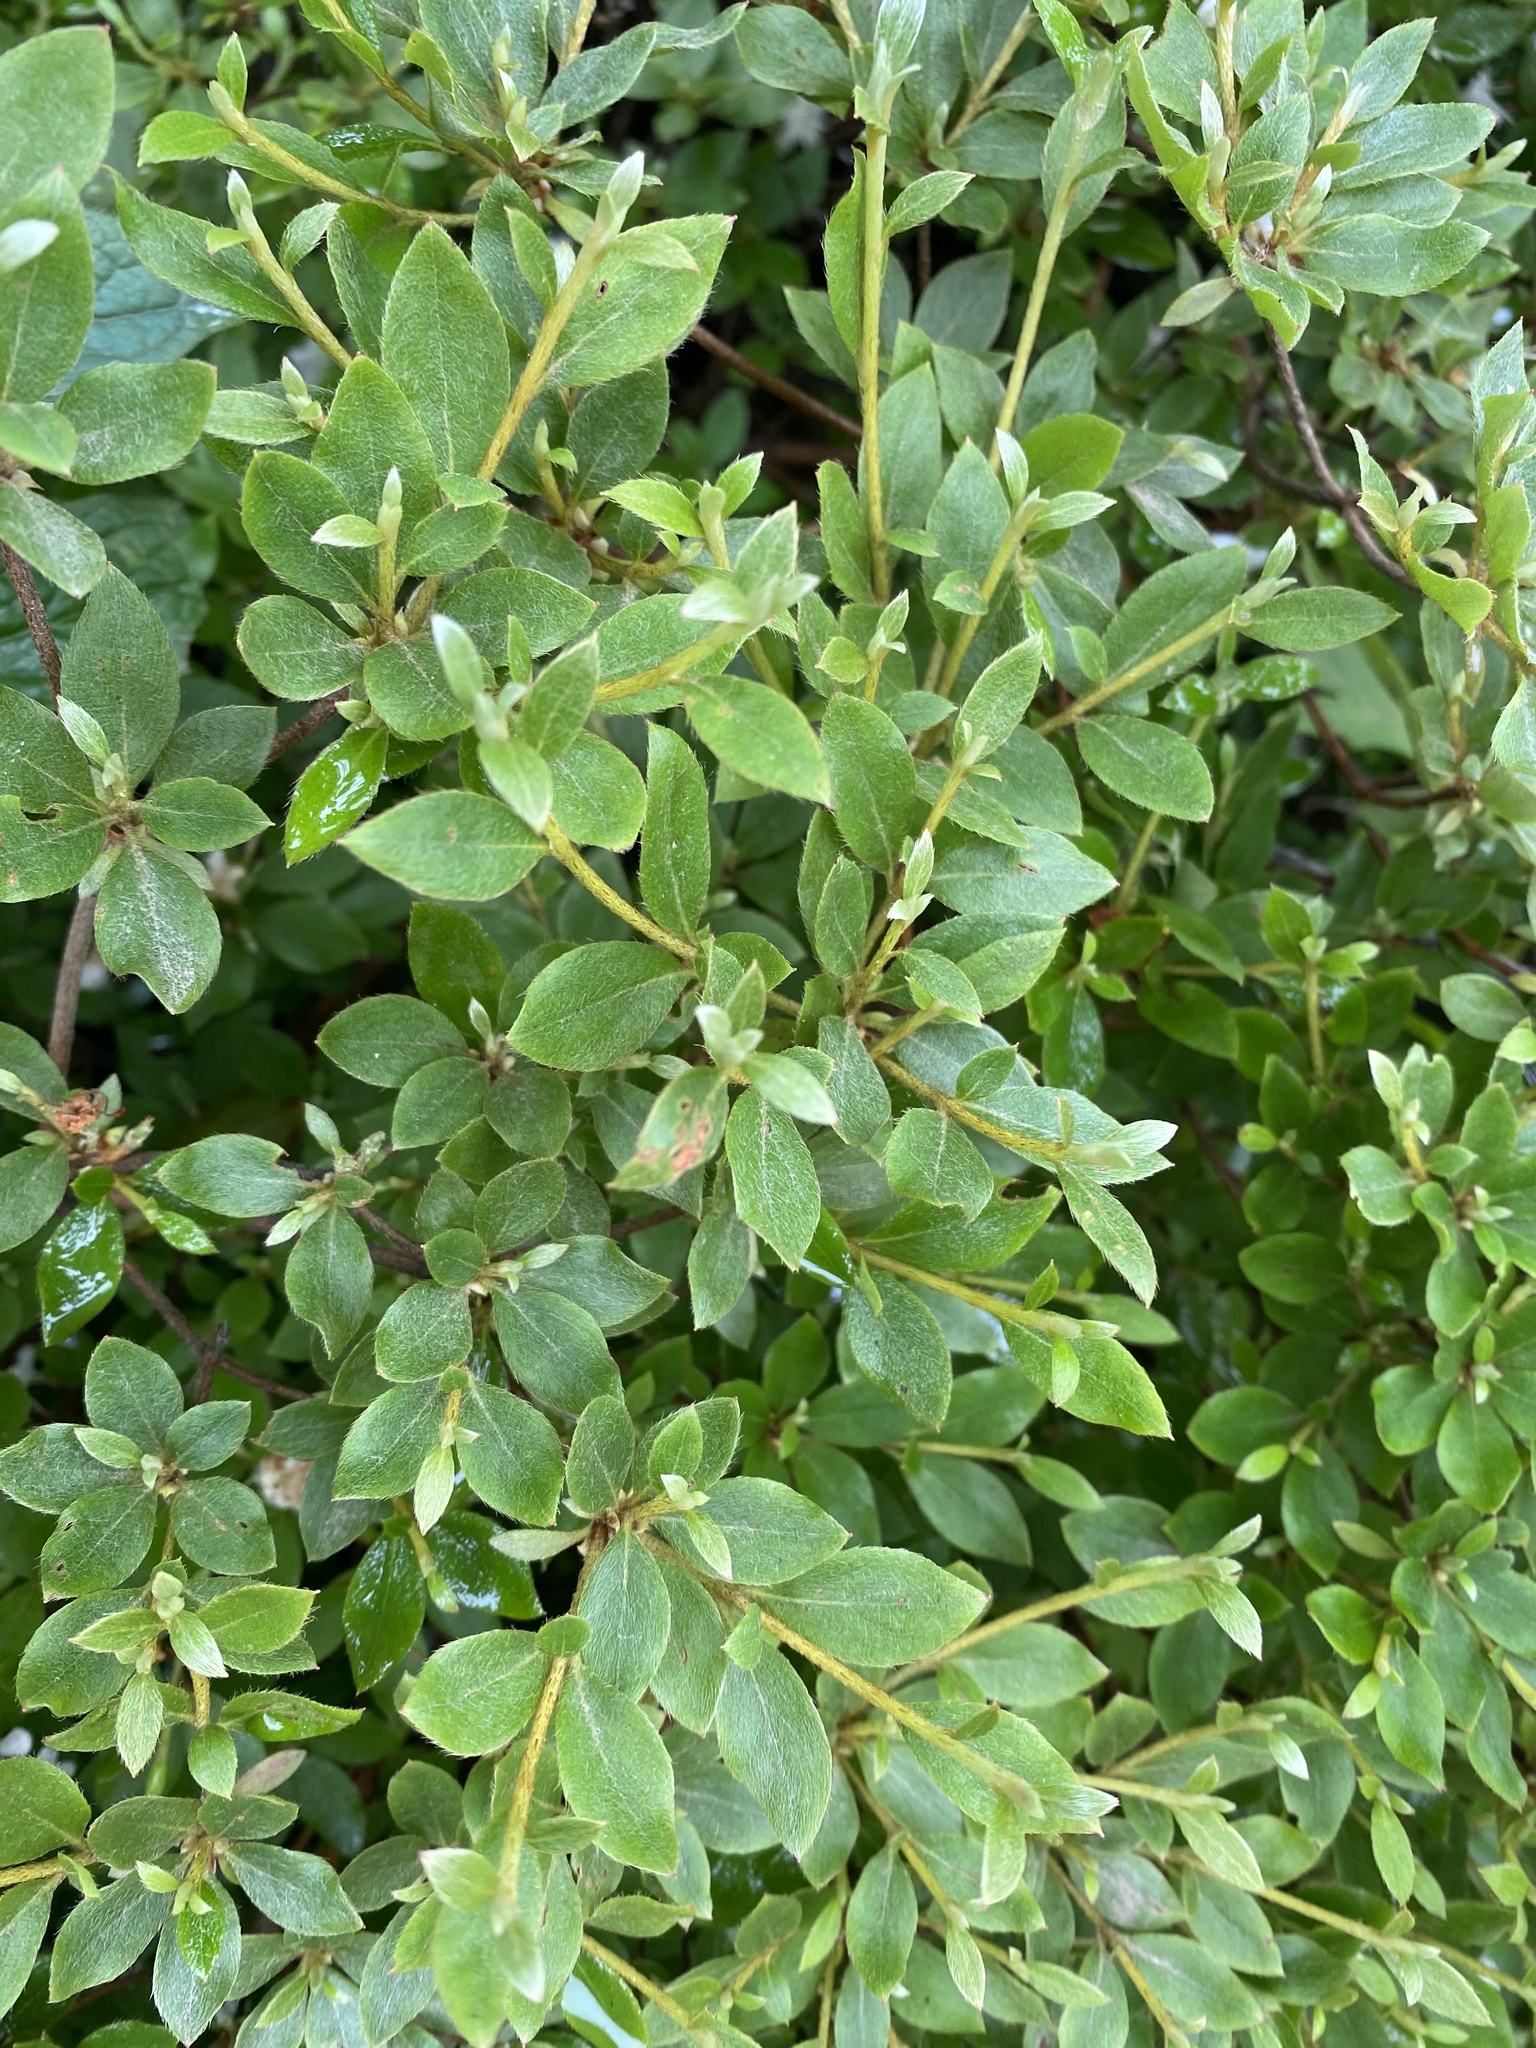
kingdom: Plantae
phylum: Tracheophyta
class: Magnoliopsida
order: Ericales
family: Ericaceae
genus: Rhododendron
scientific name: Rhododendron tschonoskii
